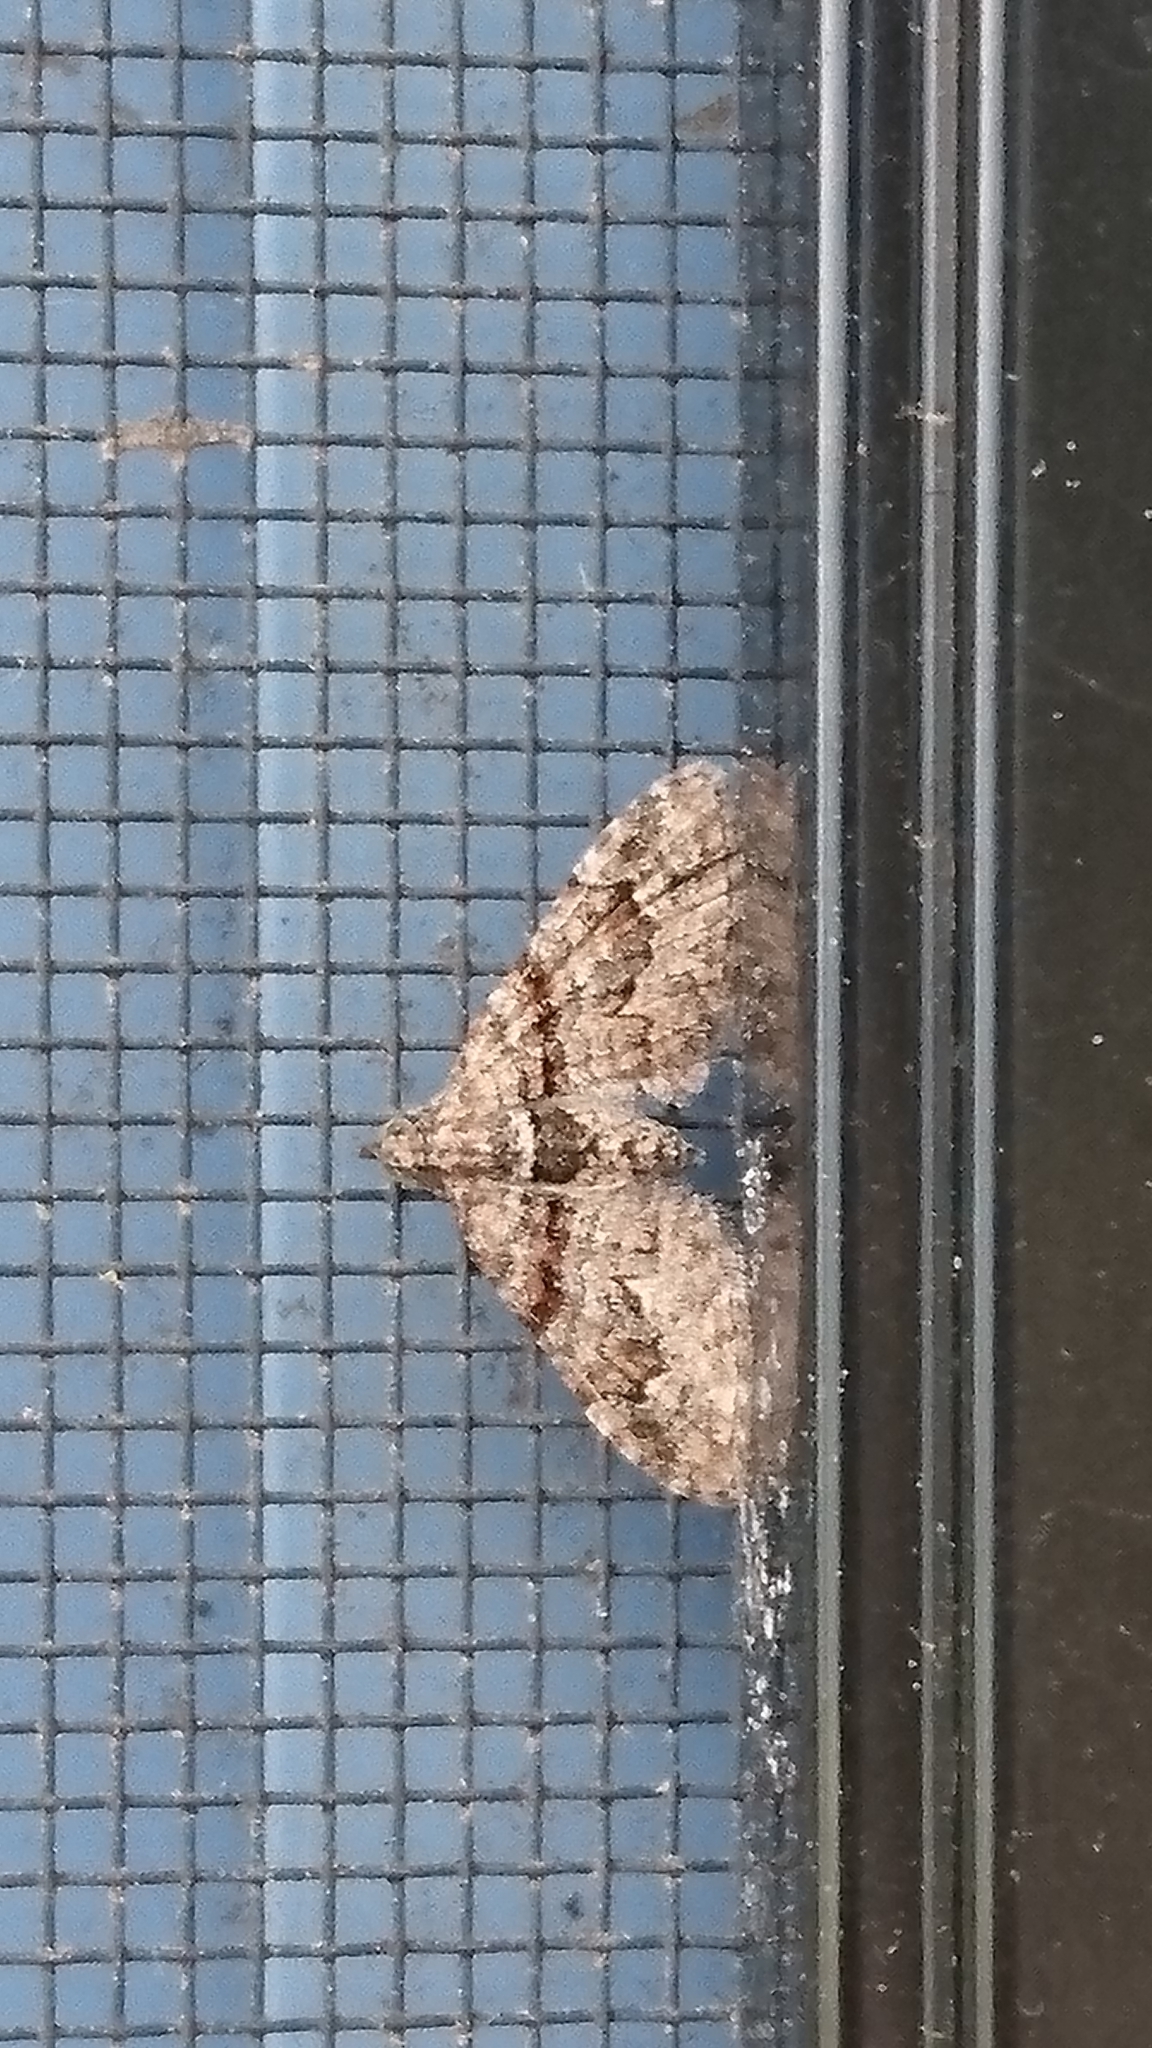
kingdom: Animalia
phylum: Arthropoda
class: Insecta
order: Lepidoptera
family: Geometridae
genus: Phrissogonus
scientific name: Phrissogonus laticostata
